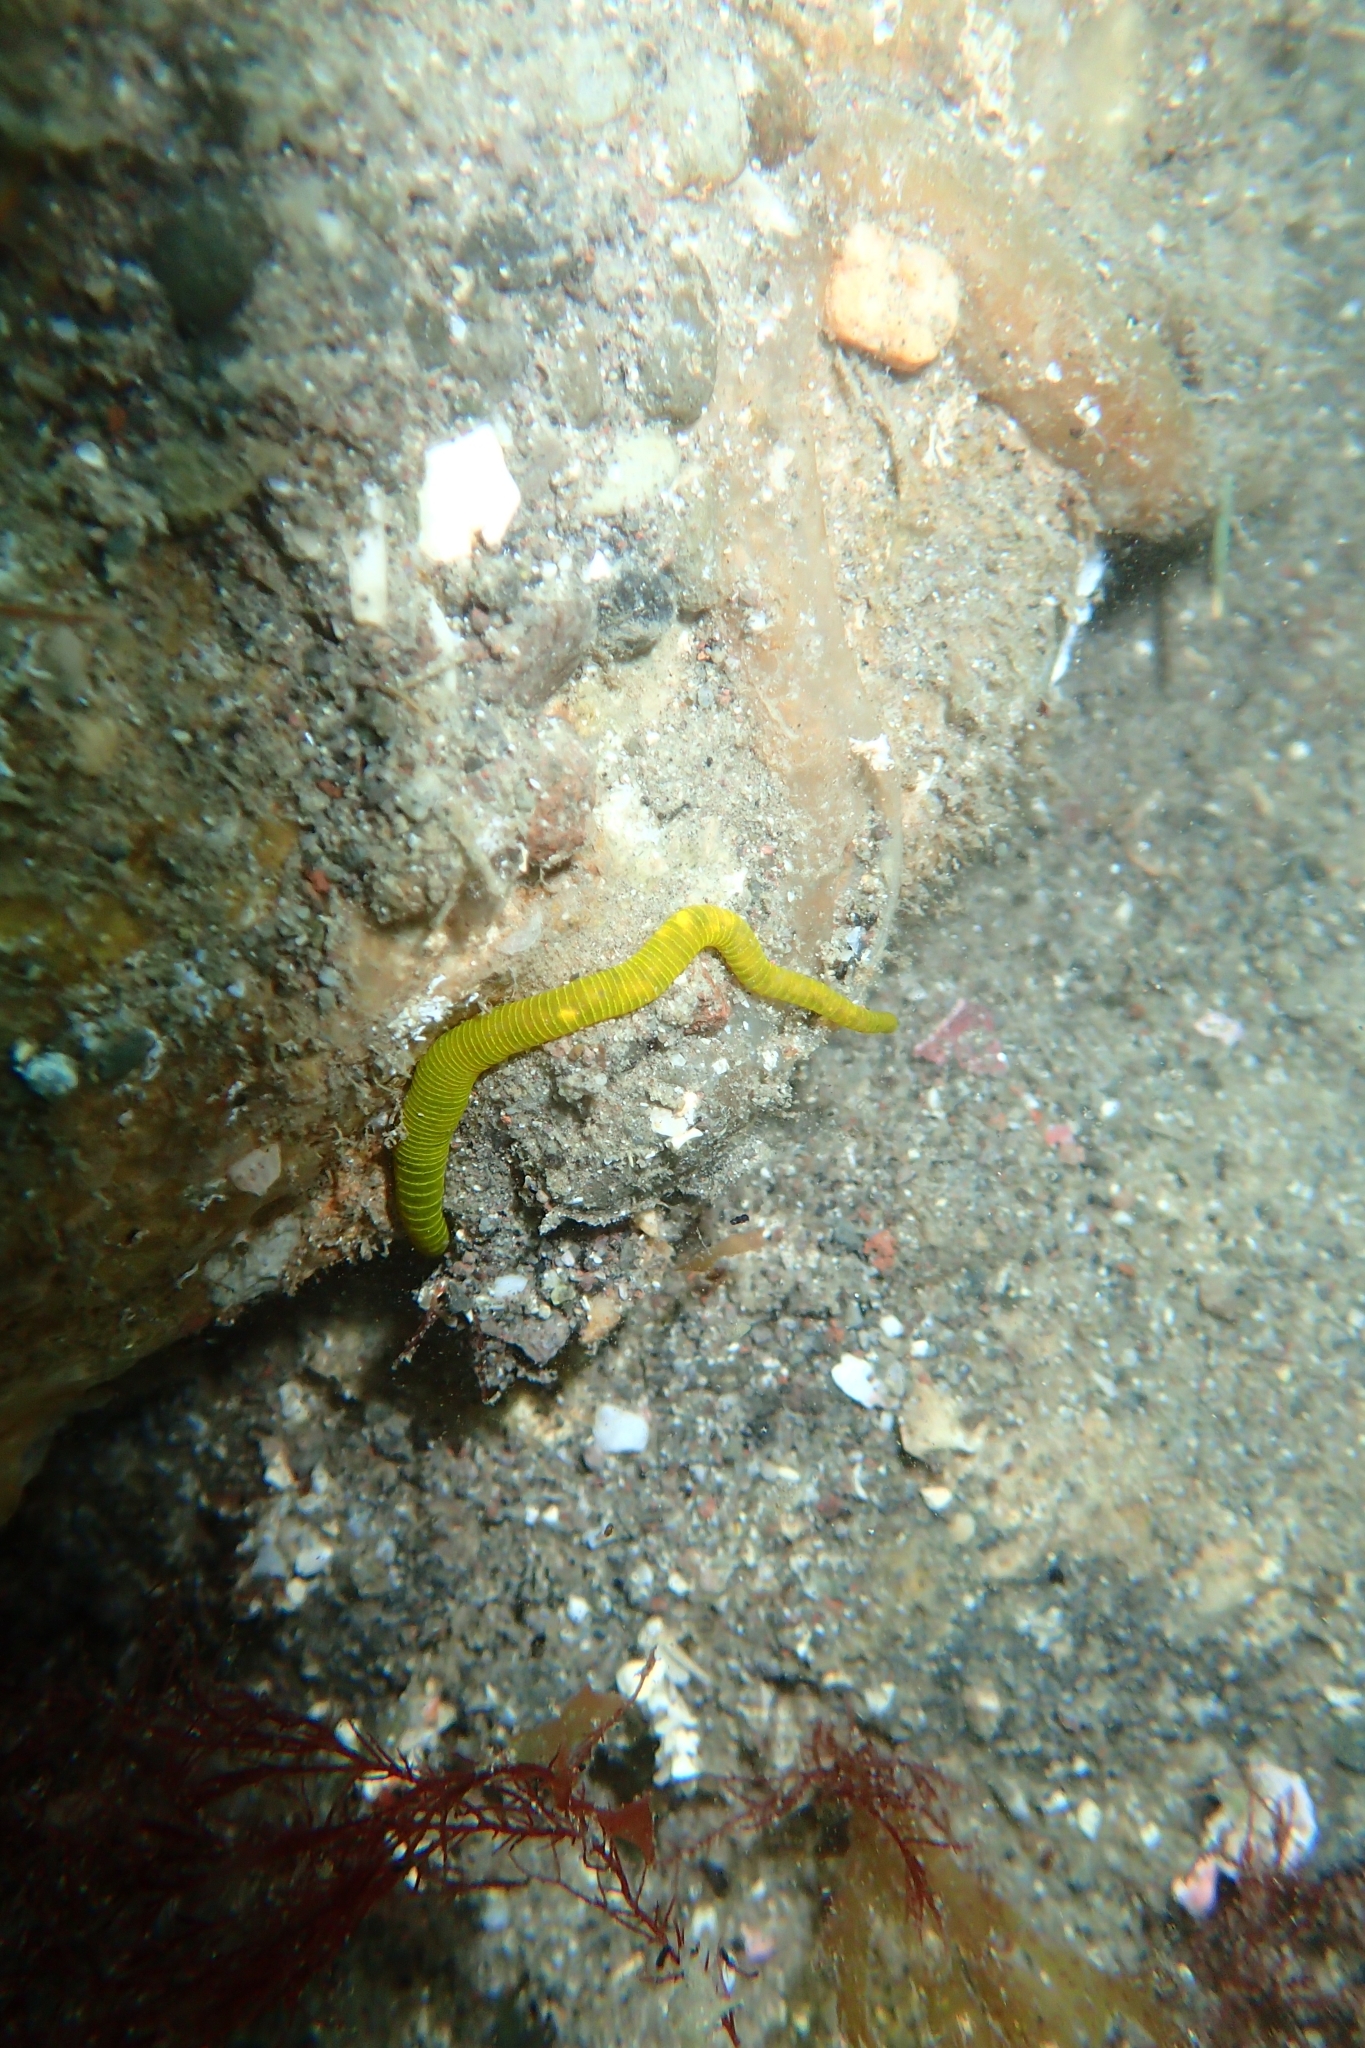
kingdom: Animalia
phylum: Annelida
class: Polychaeta
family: Acrocirridae
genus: Acrocirrus
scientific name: Acrocirrus
